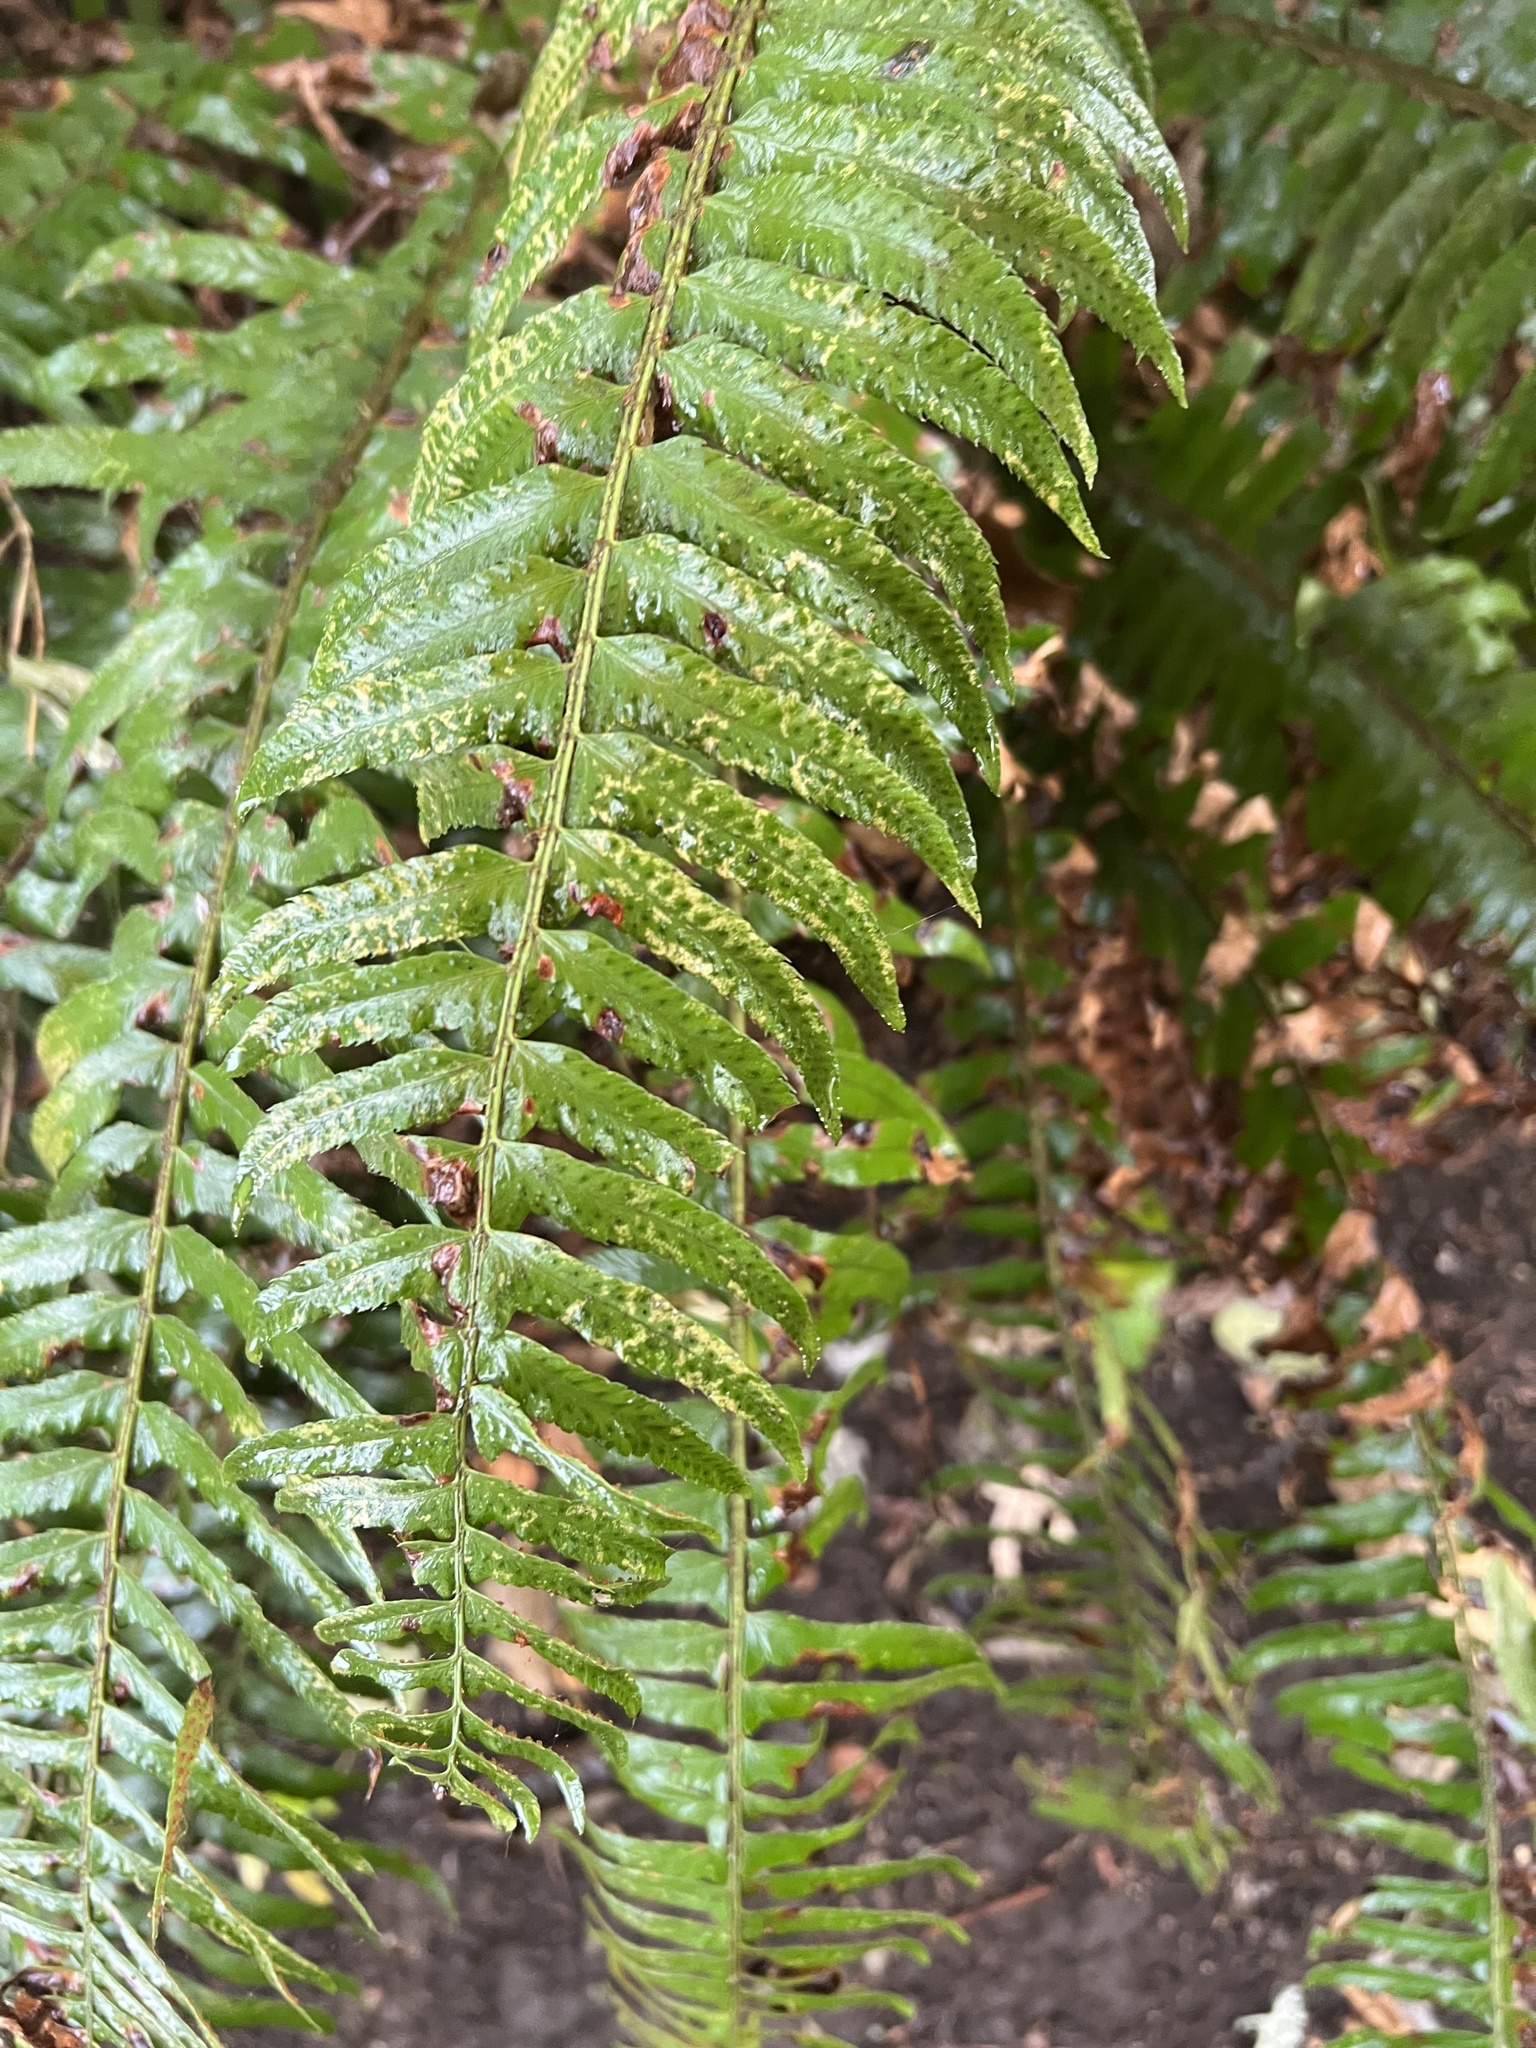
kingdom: Plantae
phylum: Tracheophyta
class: Polypodiopsida
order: Polypodiales
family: Dryopteridaceae
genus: Polystichum
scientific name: Polystichum munitum
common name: Western sword-fern
